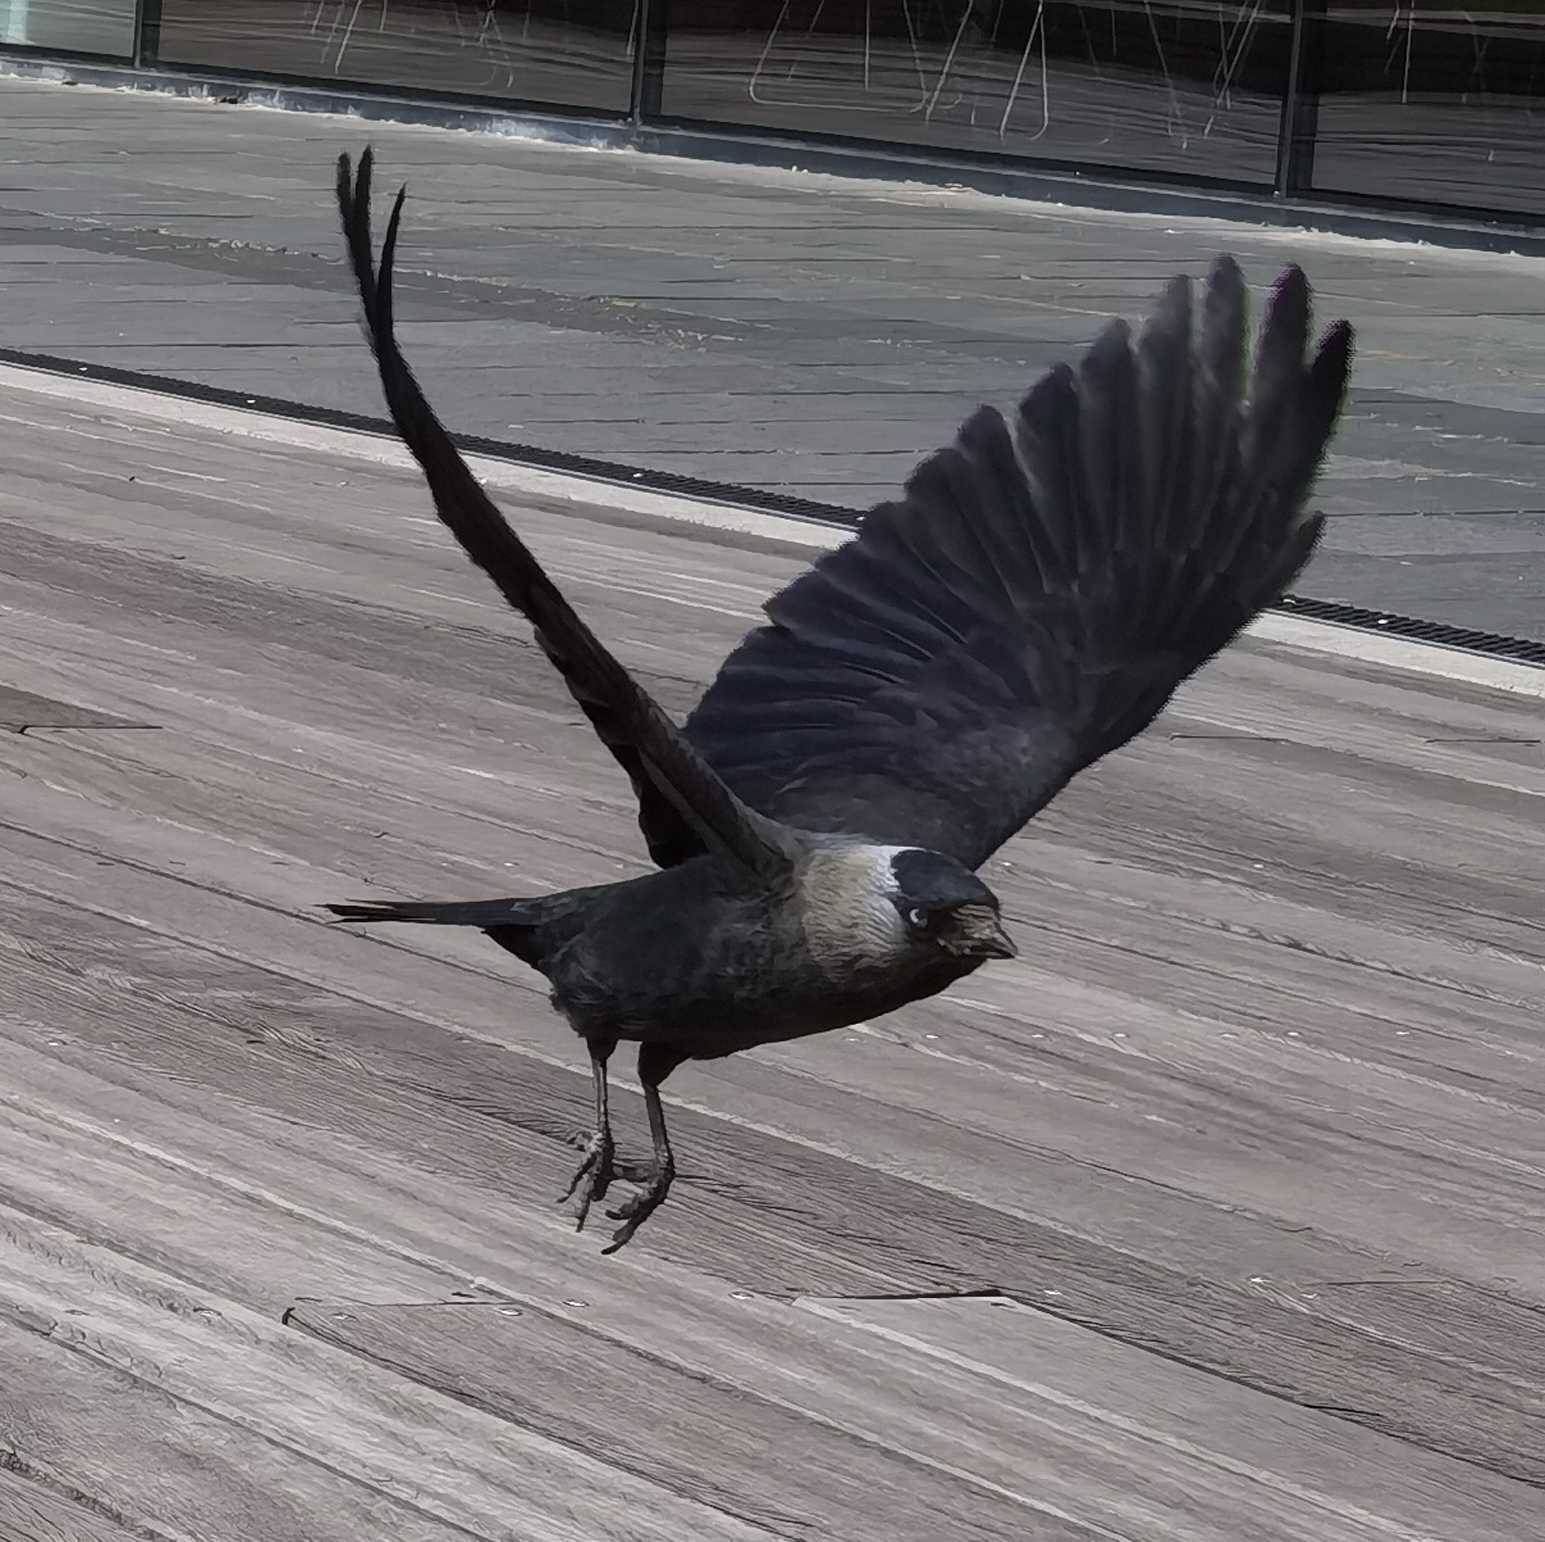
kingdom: Animalia
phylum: Chordata
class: Aves
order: Passeriformes
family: Corvidae
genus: Coloeus
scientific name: Coloeus monedula
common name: Western jackdaw
